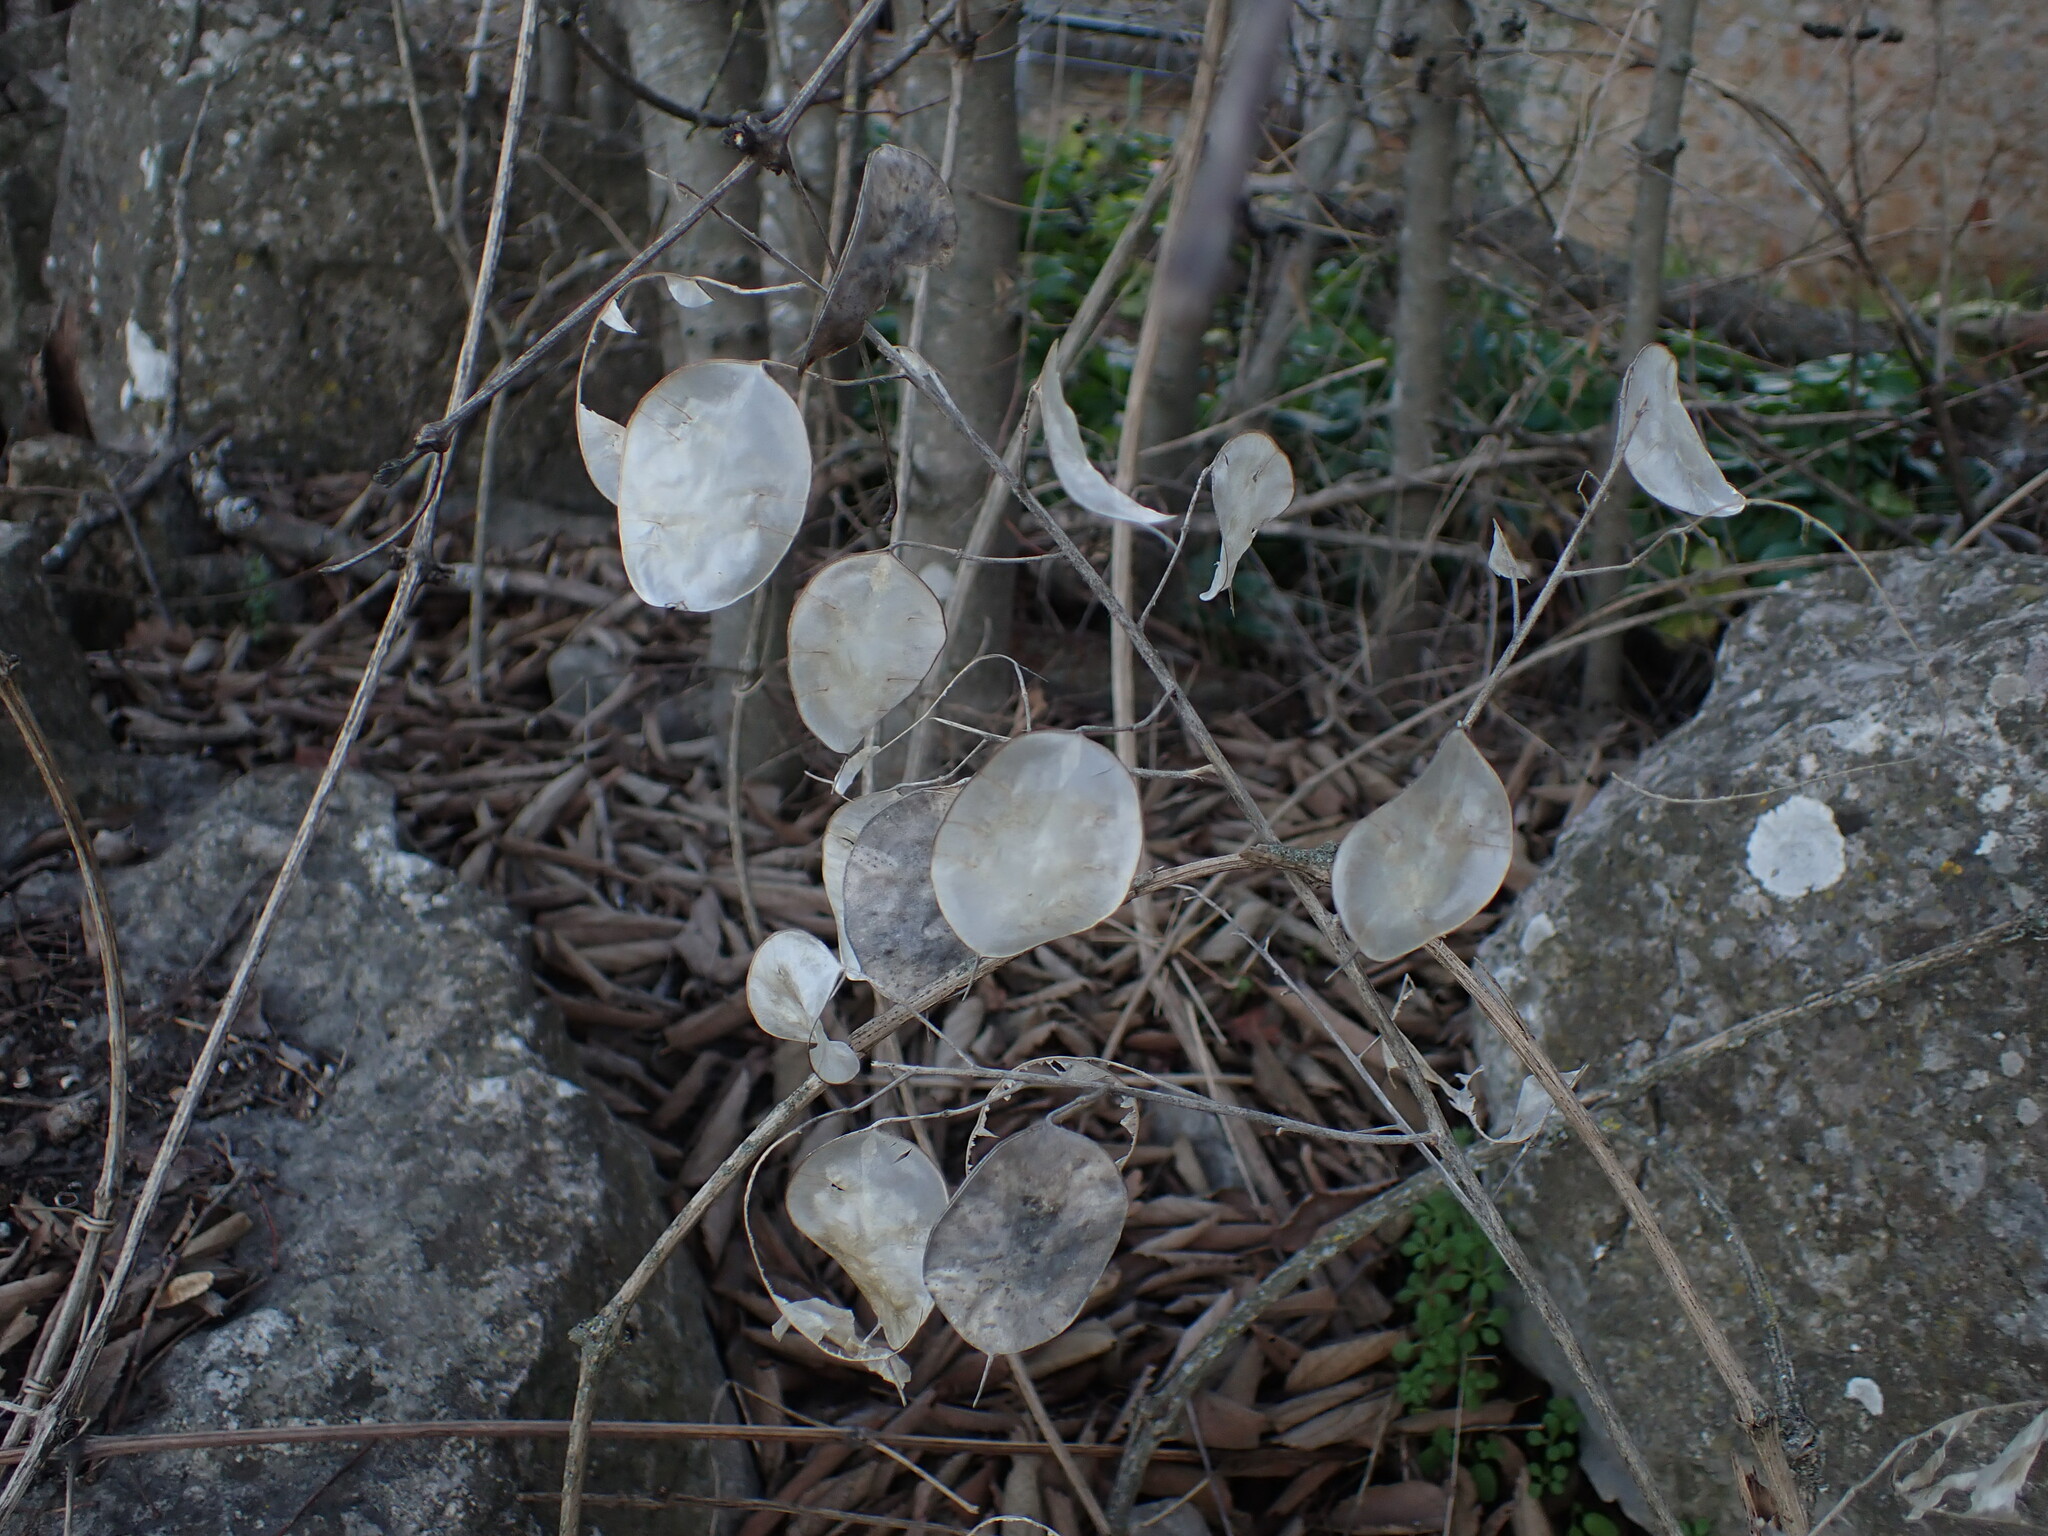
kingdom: Plantae
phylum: Tracheophyta
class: Magnoliopsida
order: Brassicales
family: Brassicaceae
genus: Lunaria
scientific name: Lunaria annua
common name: Honesty
